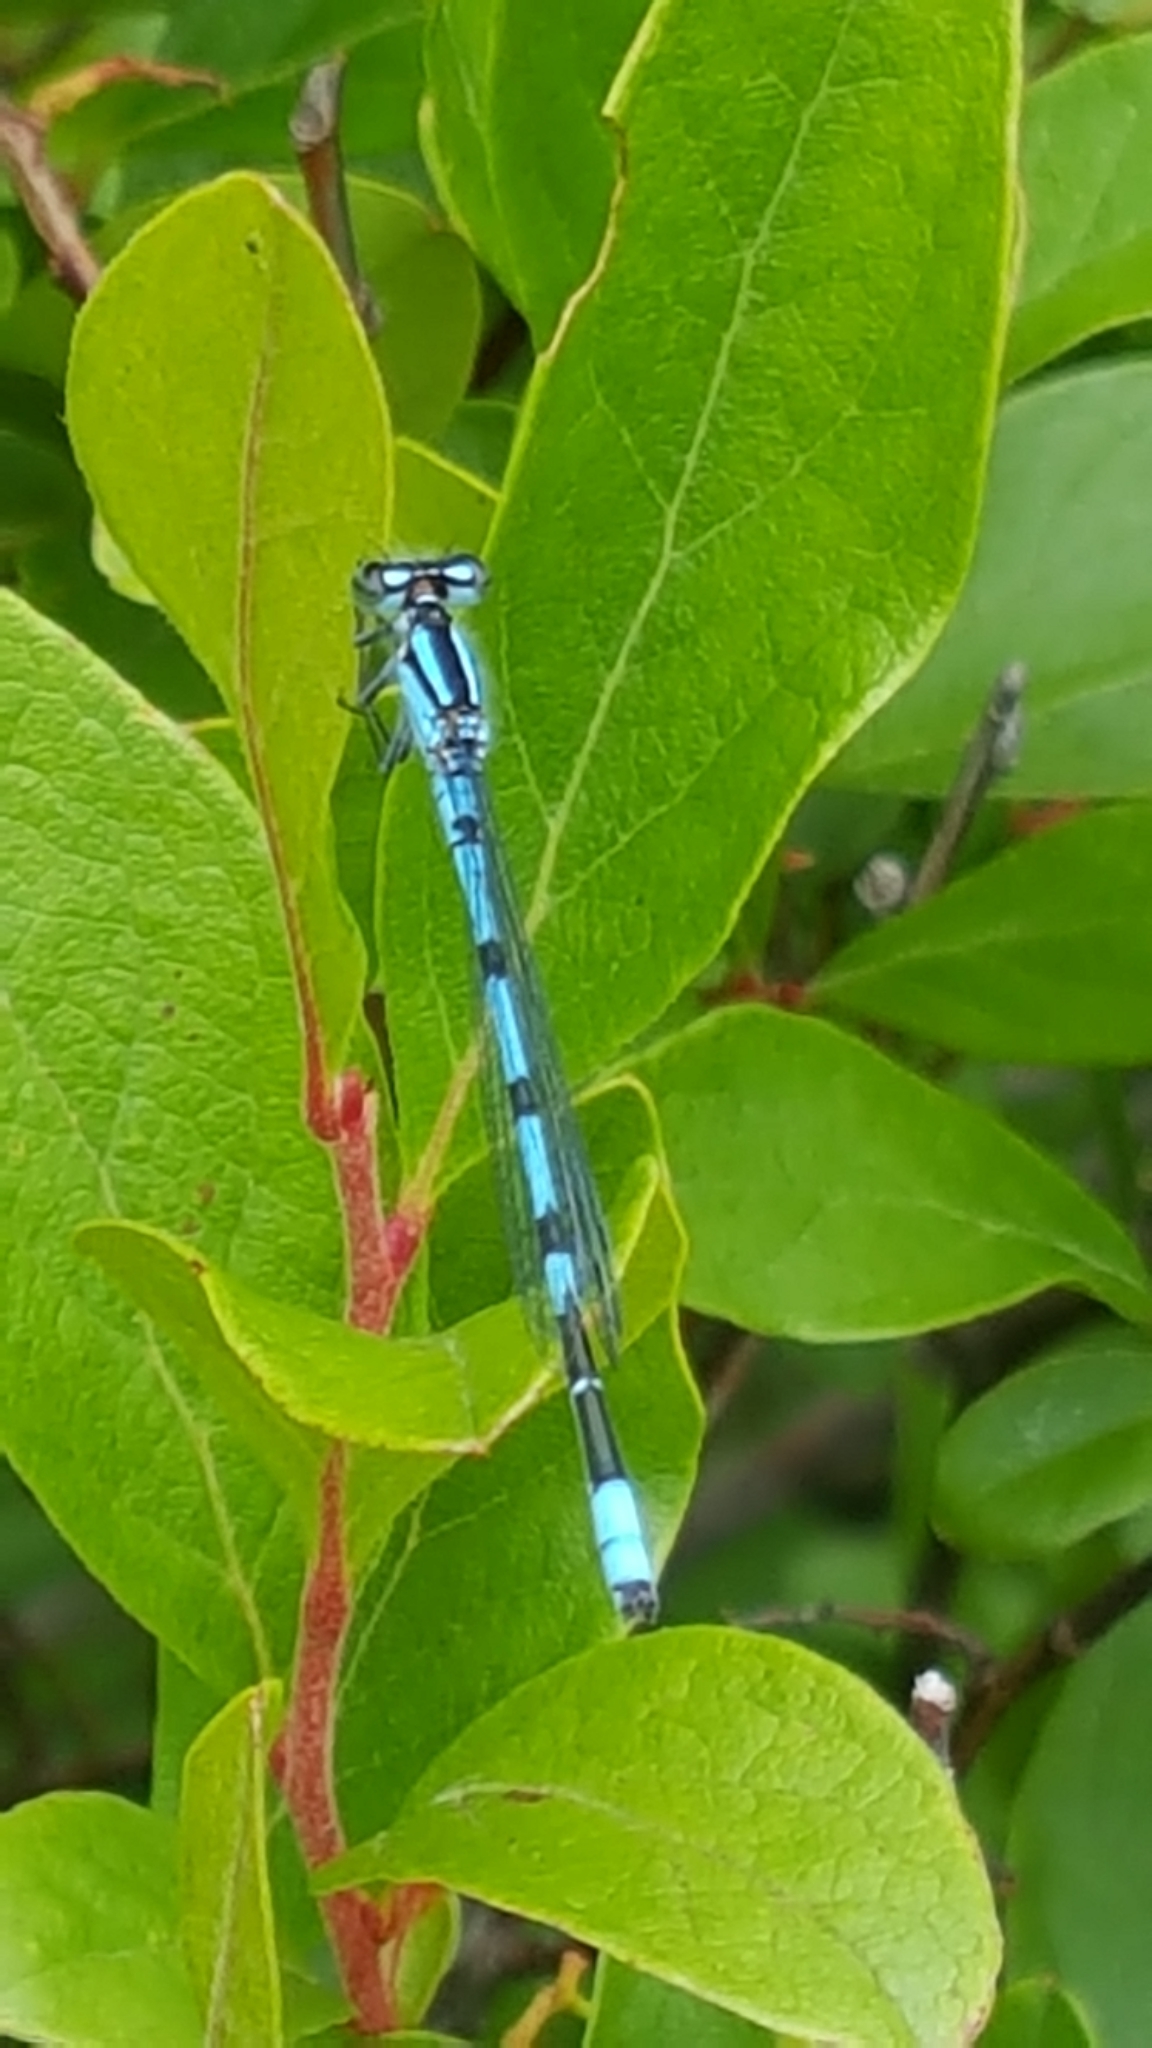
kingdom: Animalia
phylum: Arthropoda
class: Insecta
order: Odonata
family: Coenagrionidae
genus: Enallagma
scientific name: Enallagma hageni
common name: Hagen's bluet
